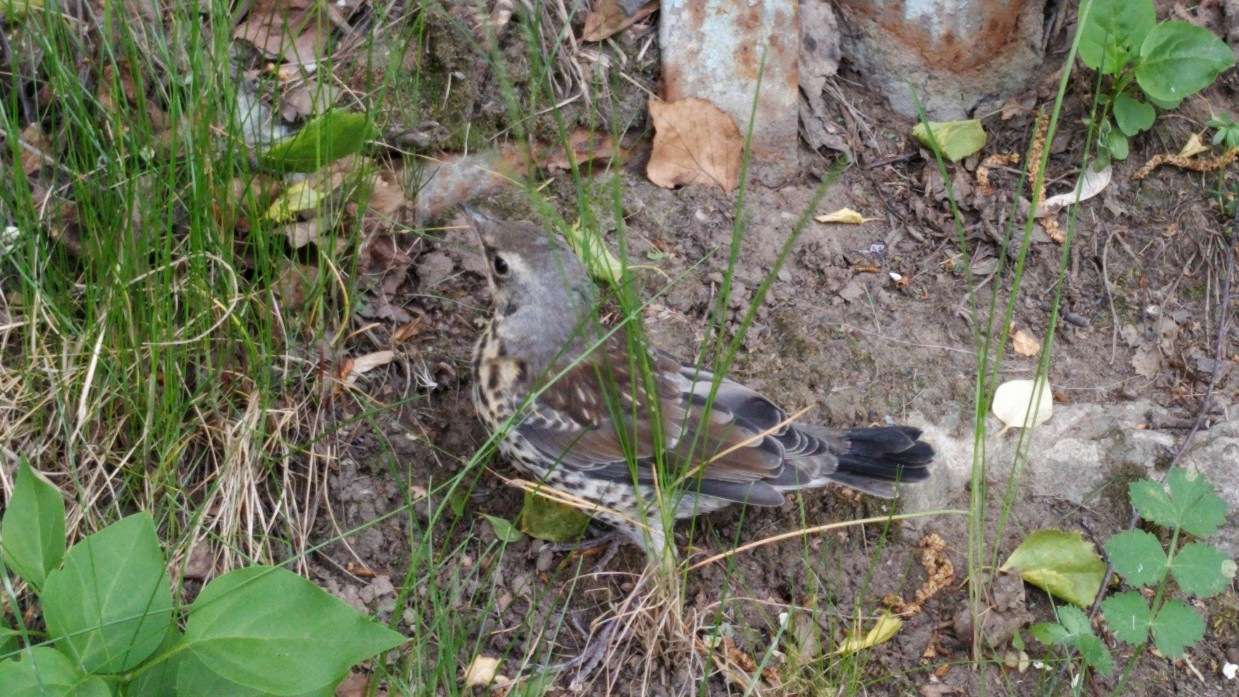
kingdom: Animalia
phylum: Chordata
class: Aves
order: Passeriformes
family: Turdidae
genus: Turdus
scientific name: Turdus pilaris
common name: Fieldfare
